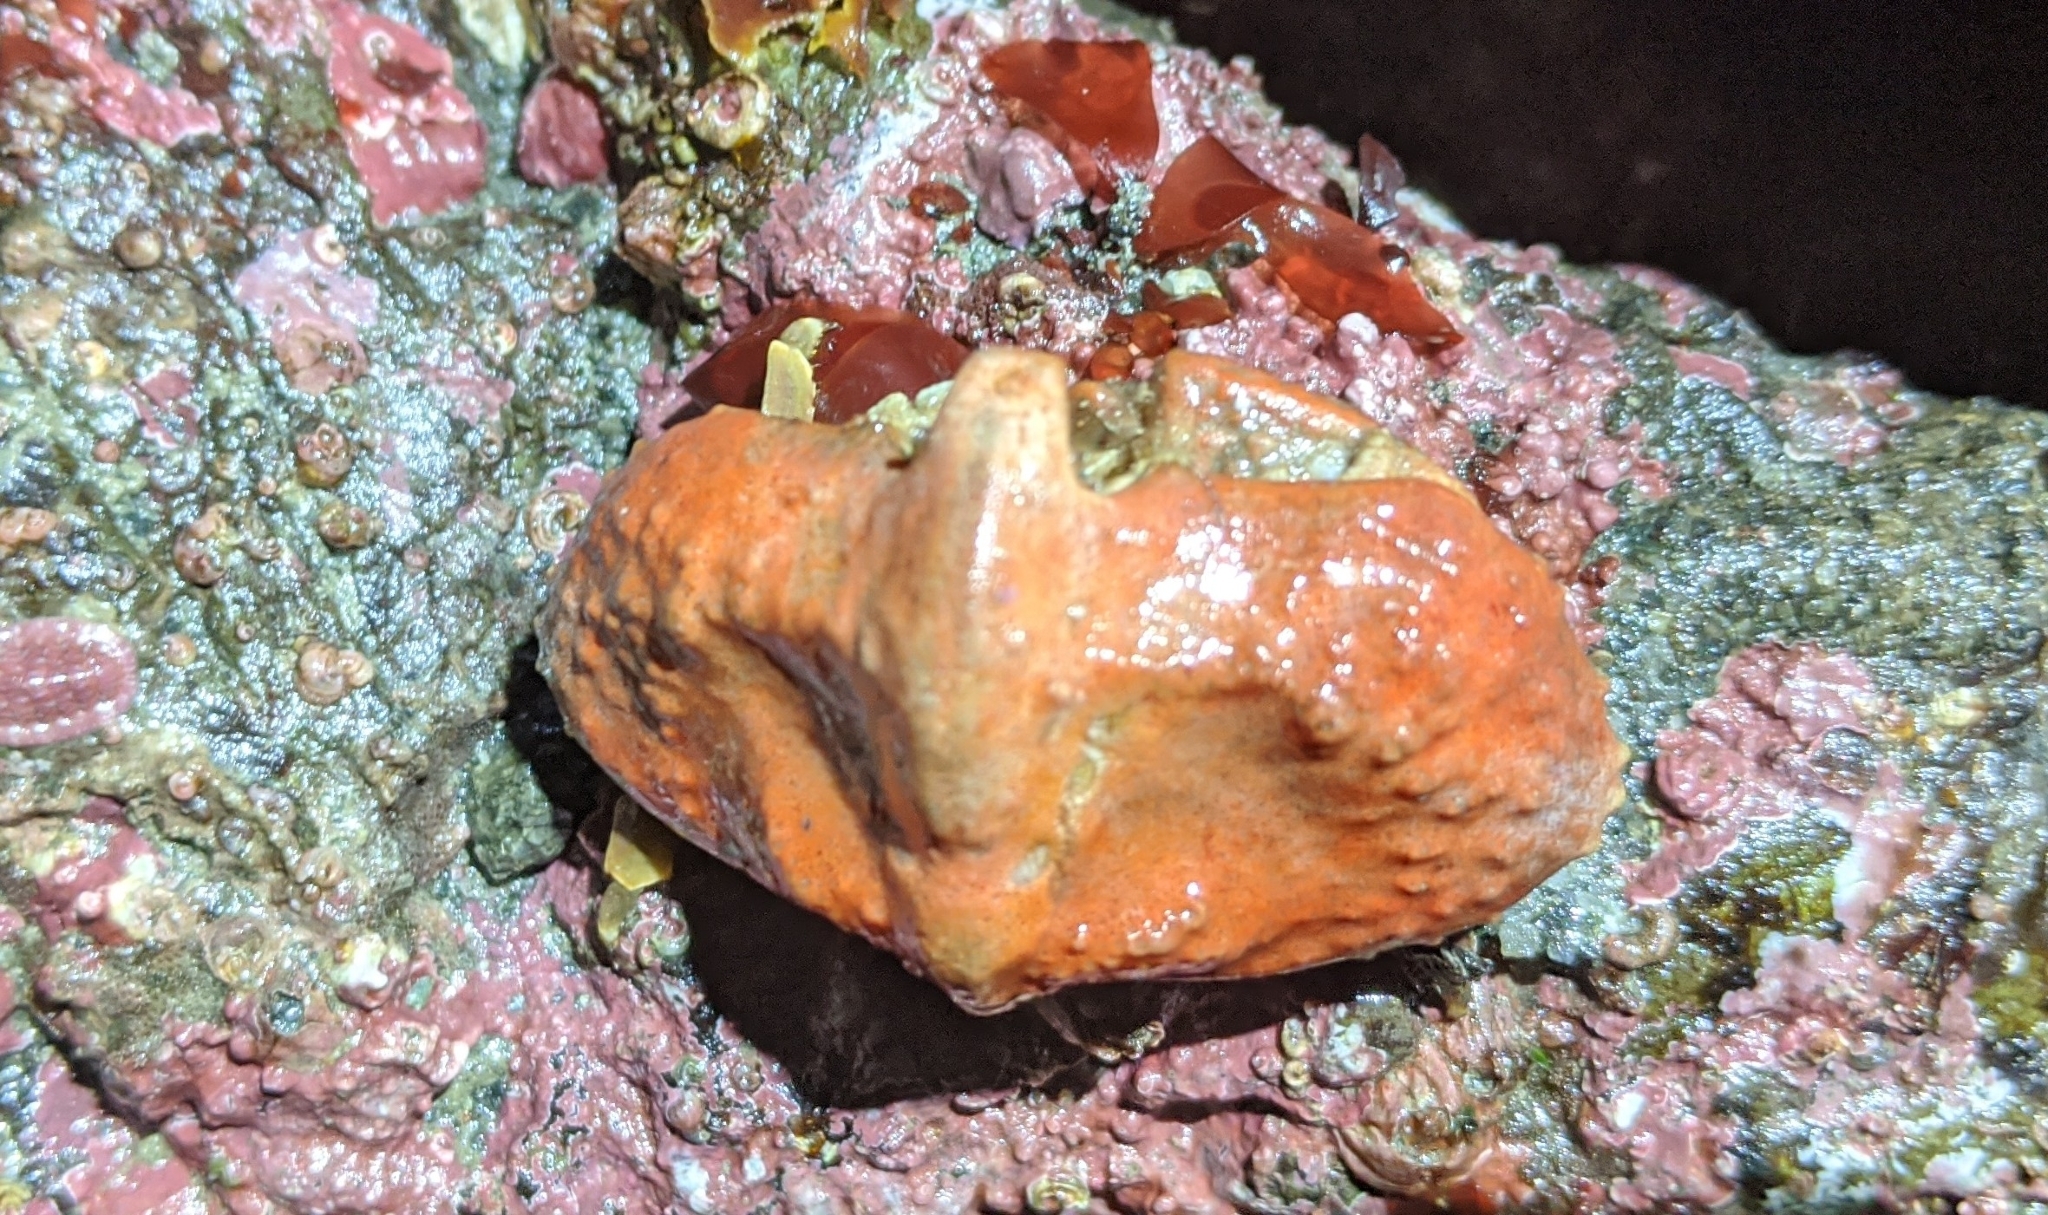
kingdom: Animalia
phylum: Arthropoda
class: Malacostraca
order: Decapoda
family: Lithodidae
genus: Cryptolithodes
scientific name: Cryptolithodes typicus
